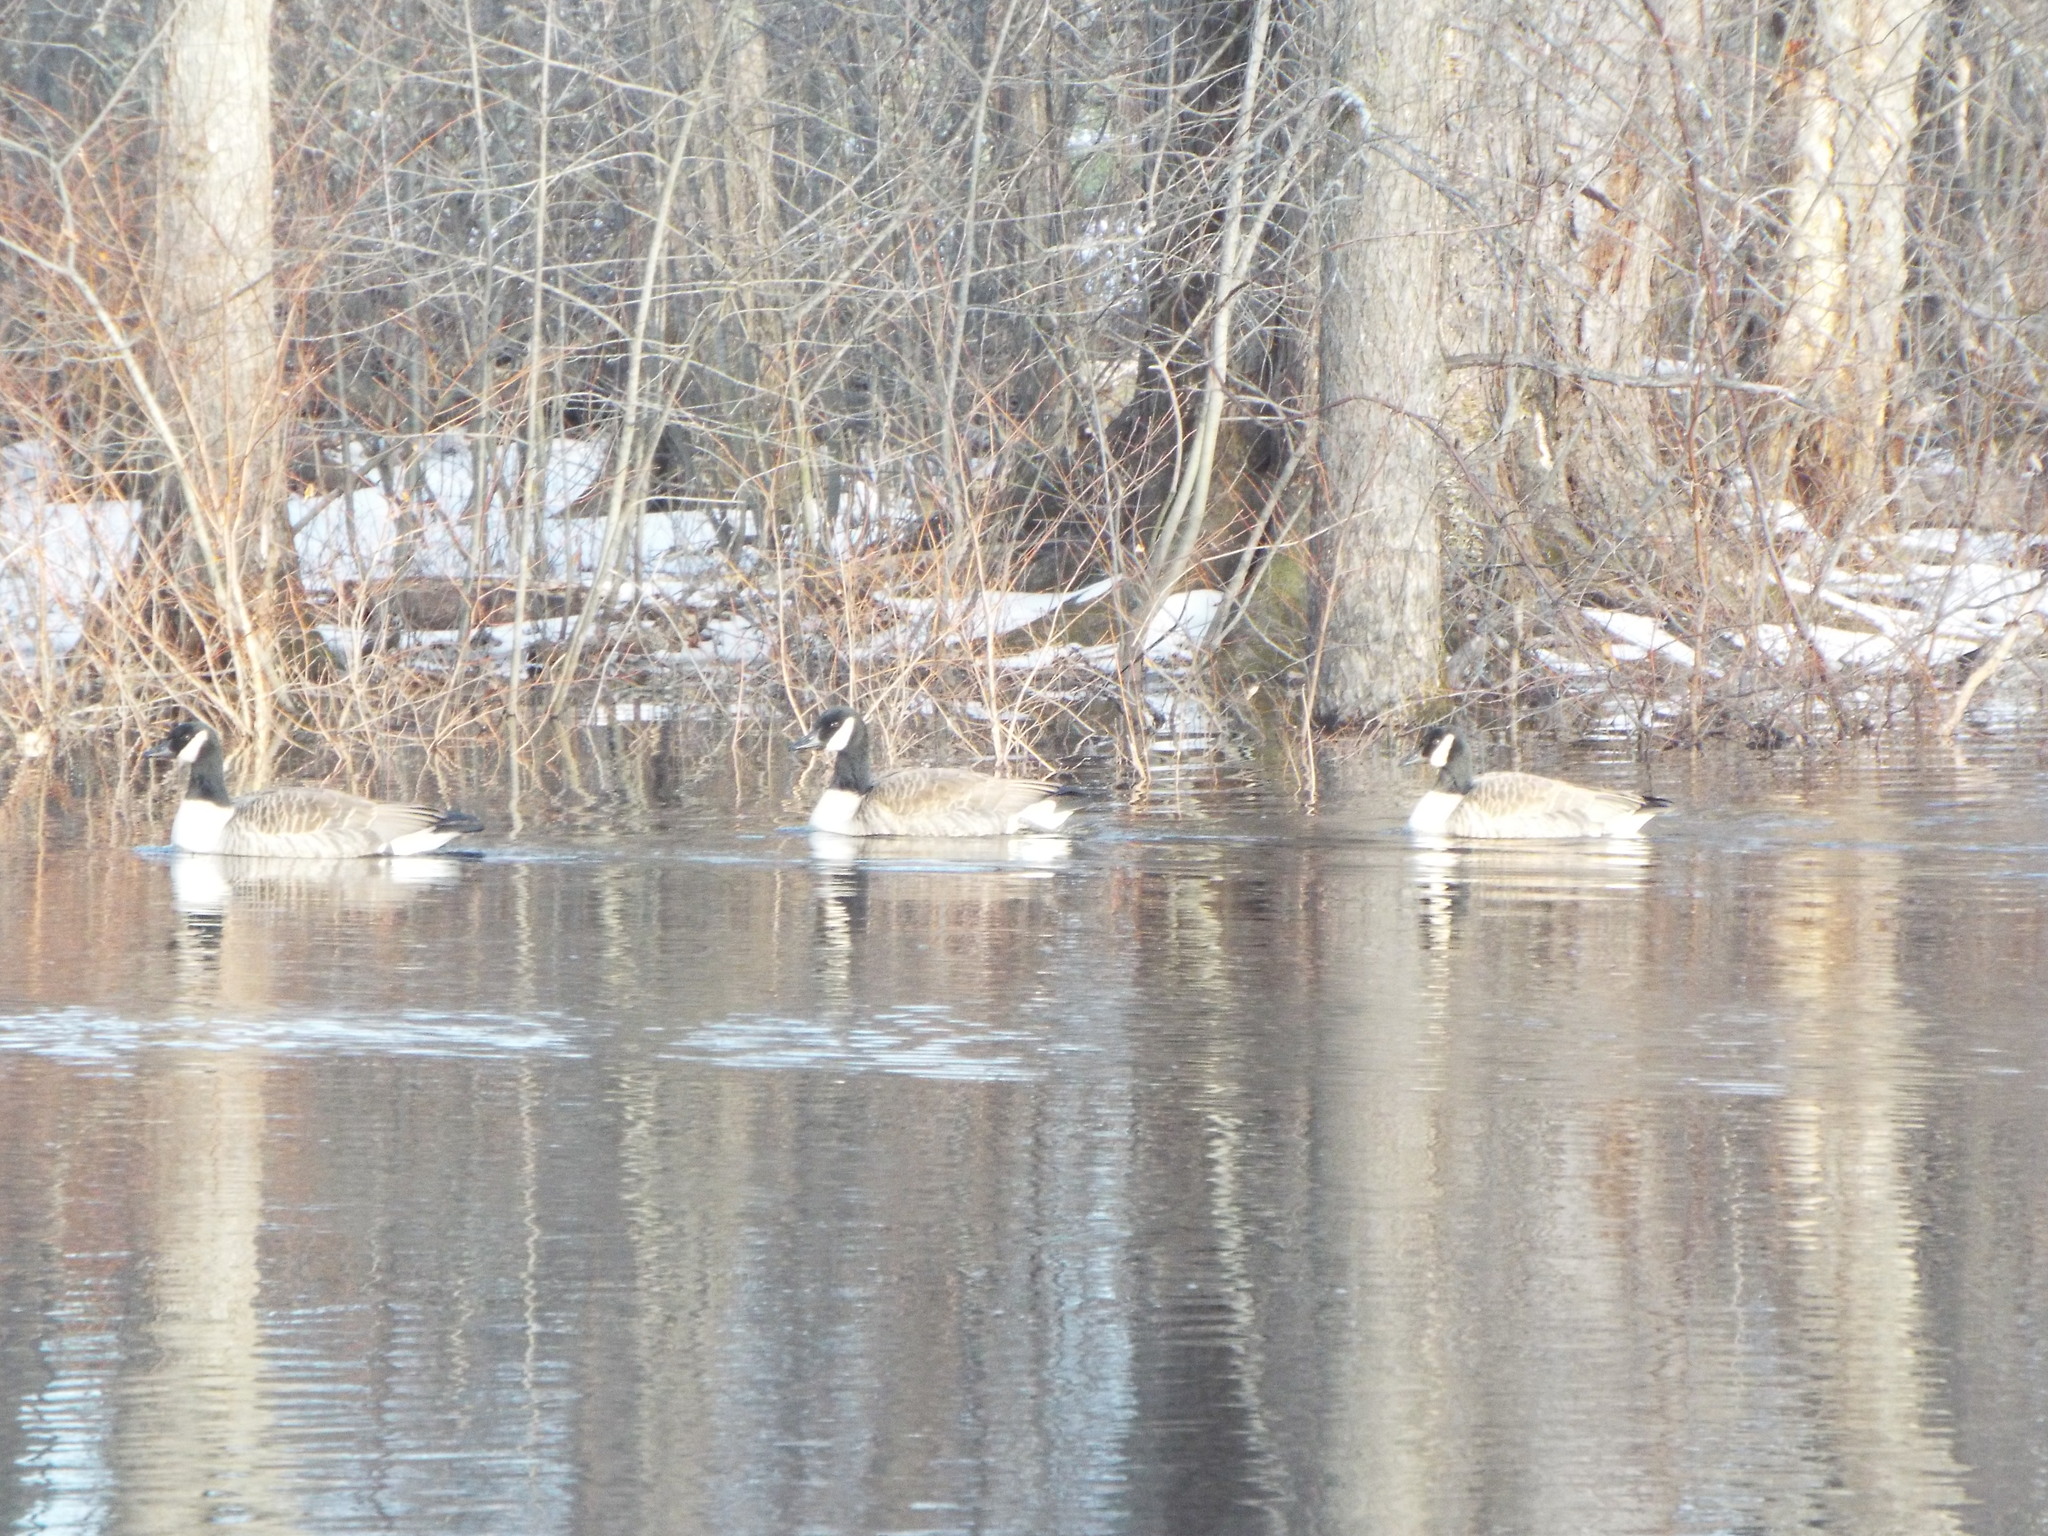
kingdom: Animalia
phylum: Chordata
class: Aves
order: Anseriformes
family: Anatidae
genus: Branta
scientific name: Branta canadensis
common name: Canada goose
